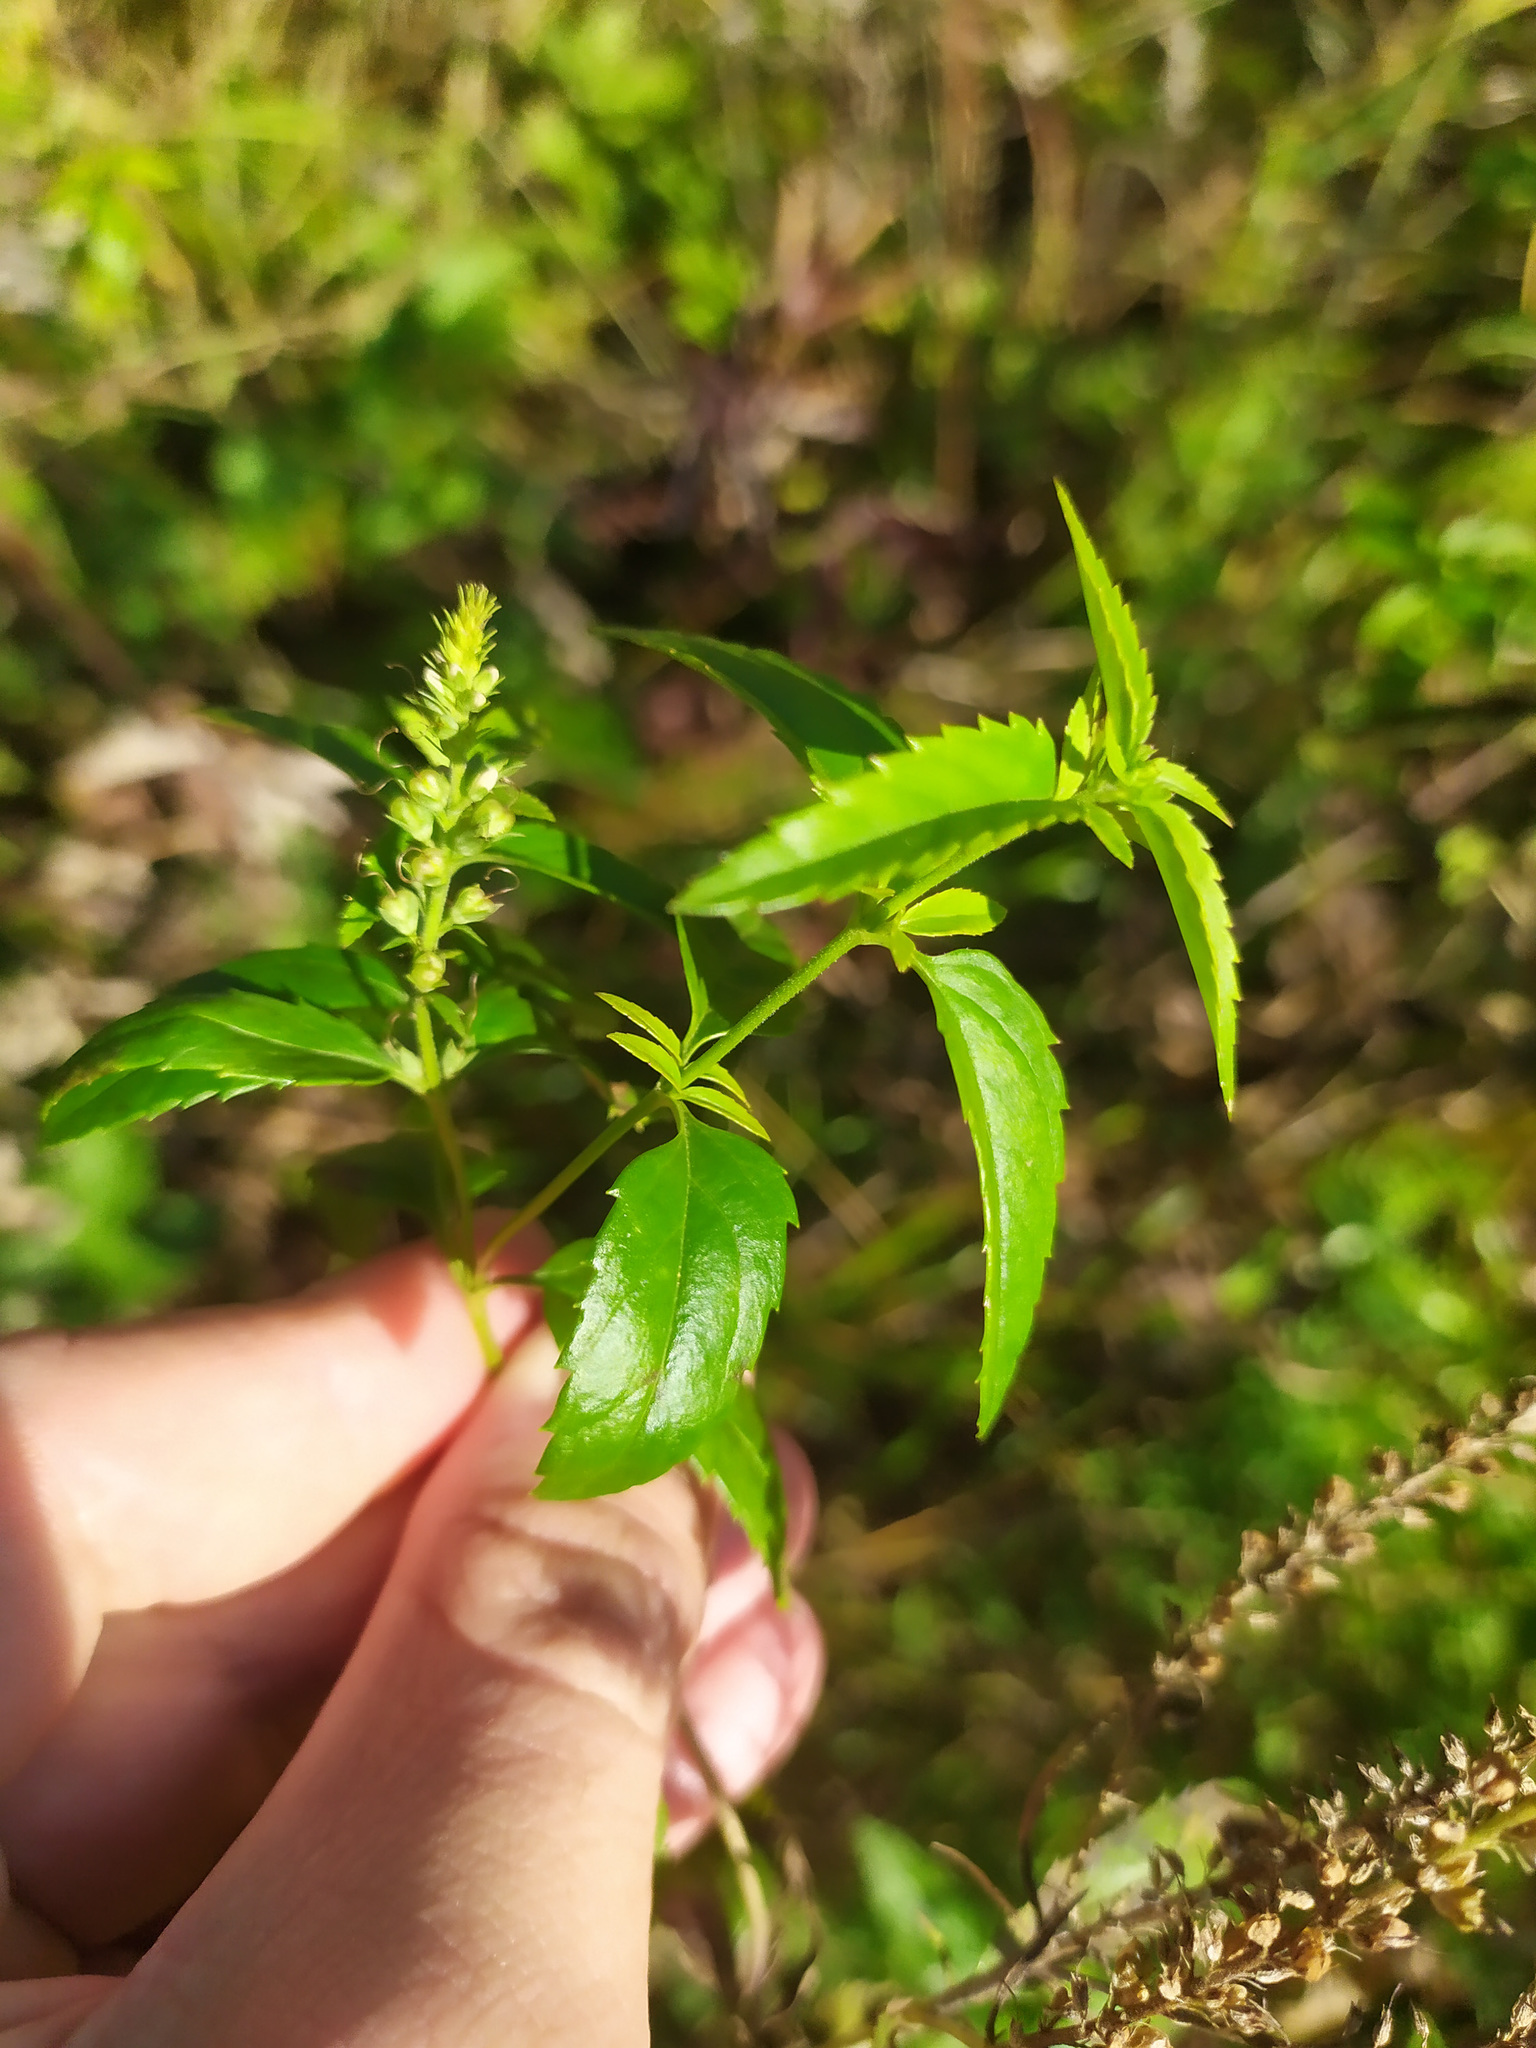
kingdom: Plantae
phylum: Tracheophyta
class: Magnoliopsida
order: Lamiales
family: Plantaginaceae
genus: Veronica
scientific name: Veronica teucrium
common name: Large speedwell
